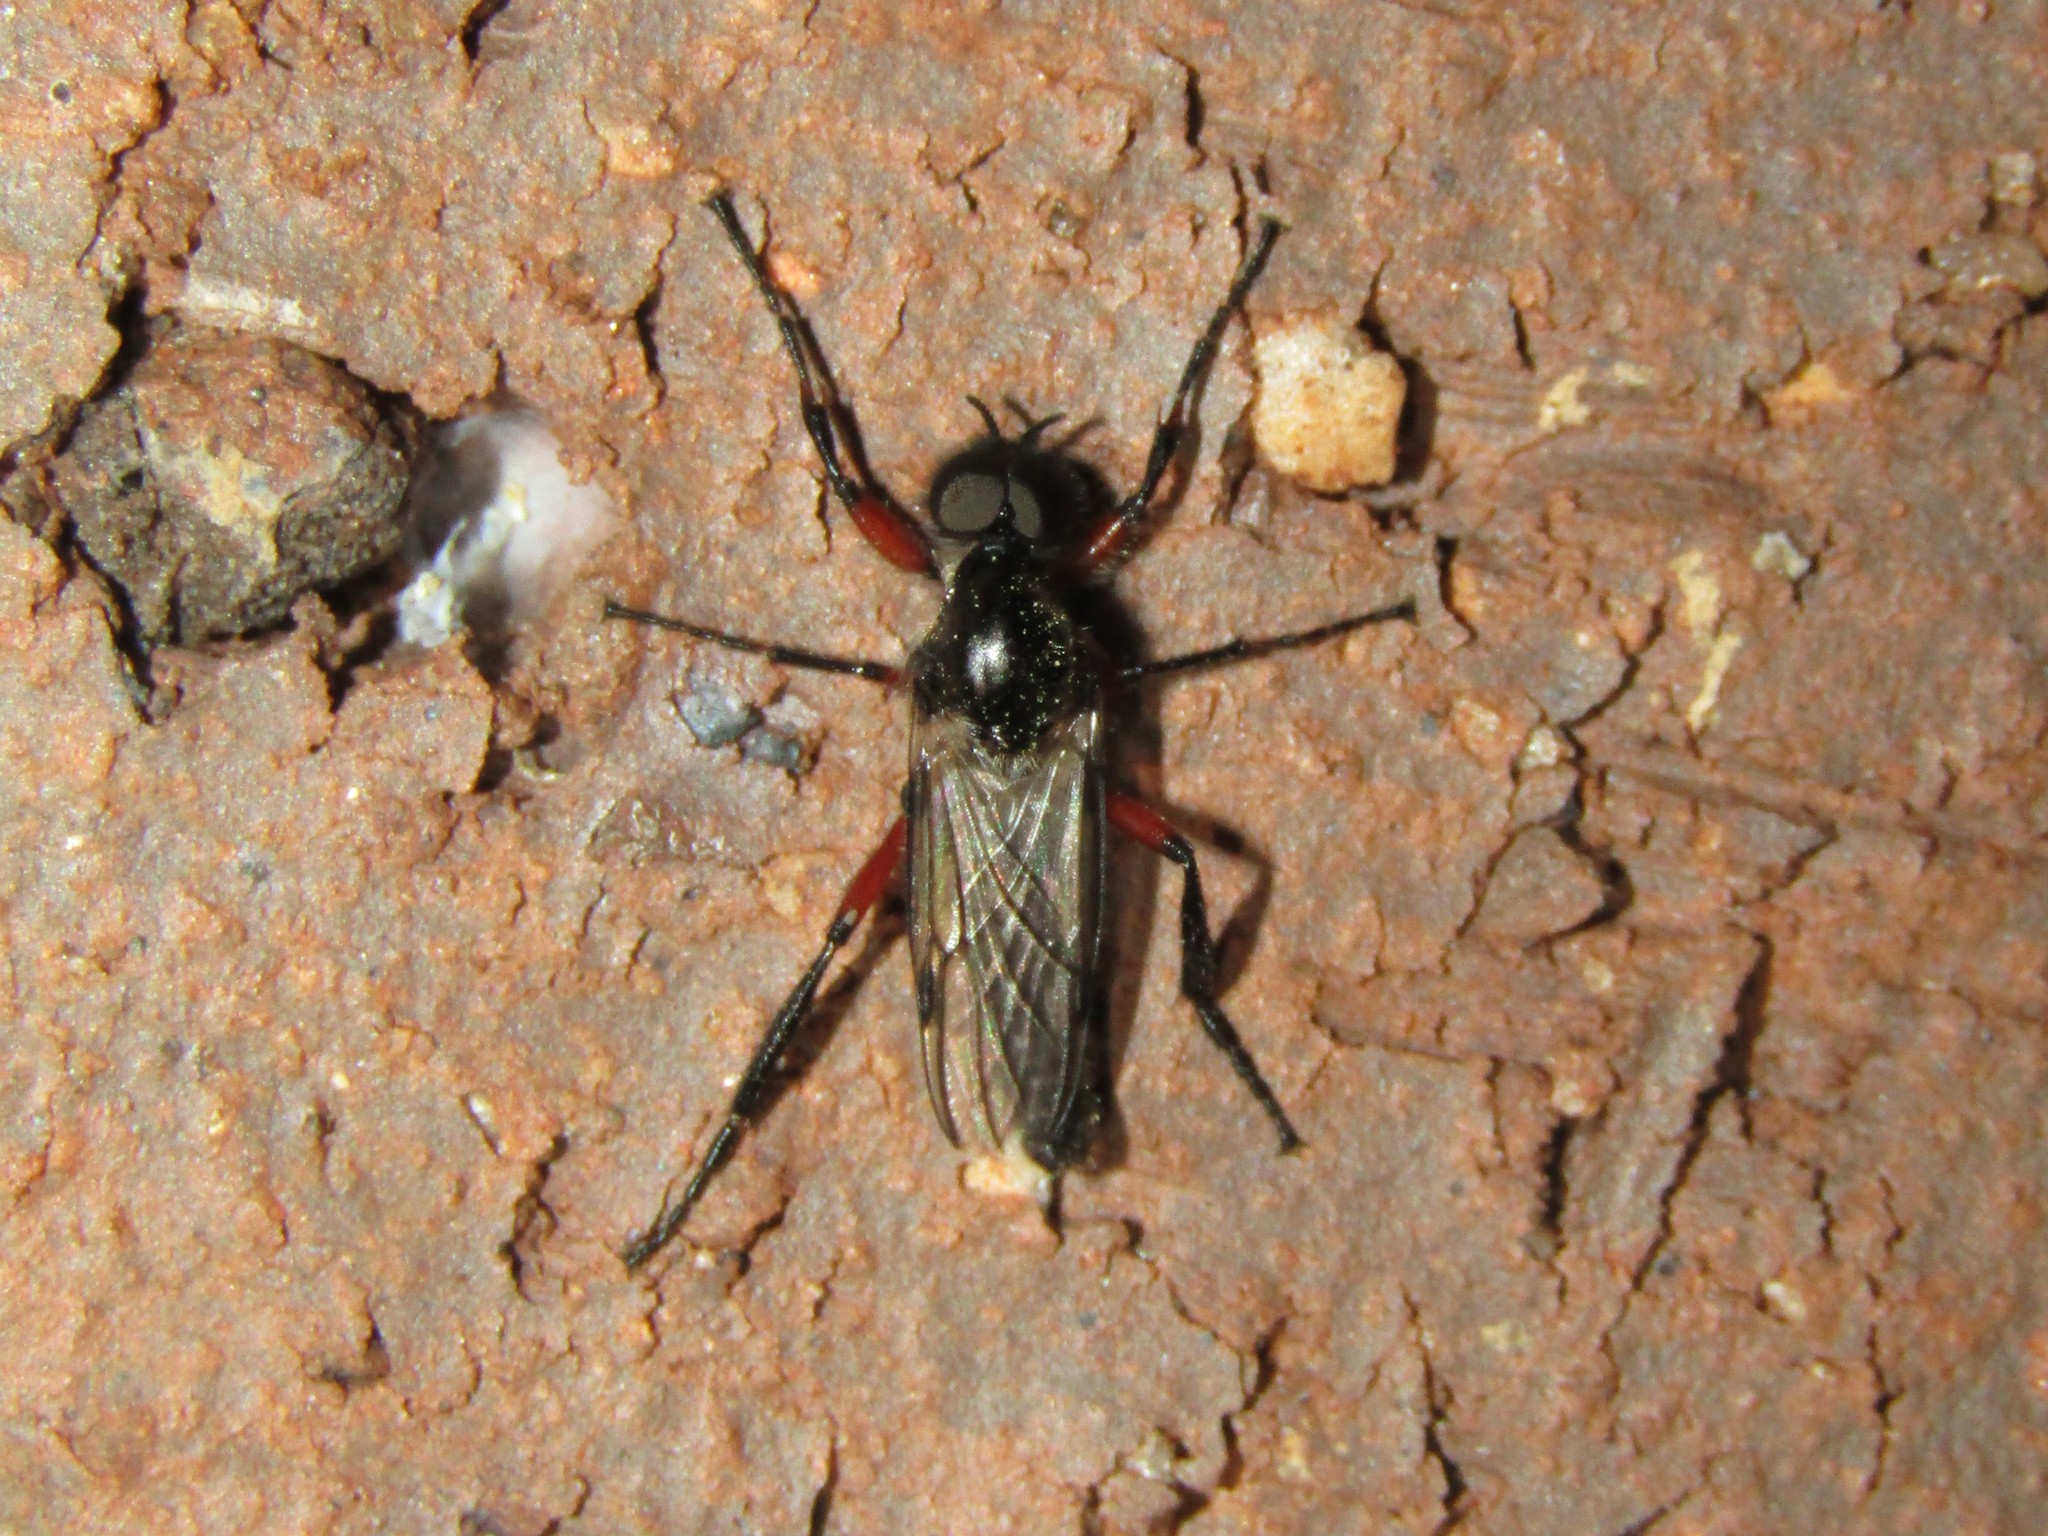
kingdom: Animalia
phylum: Arthropoda
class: Insecta
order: Diptera
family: Bibionidae
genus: Bibio
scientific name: Bibio femoratus
